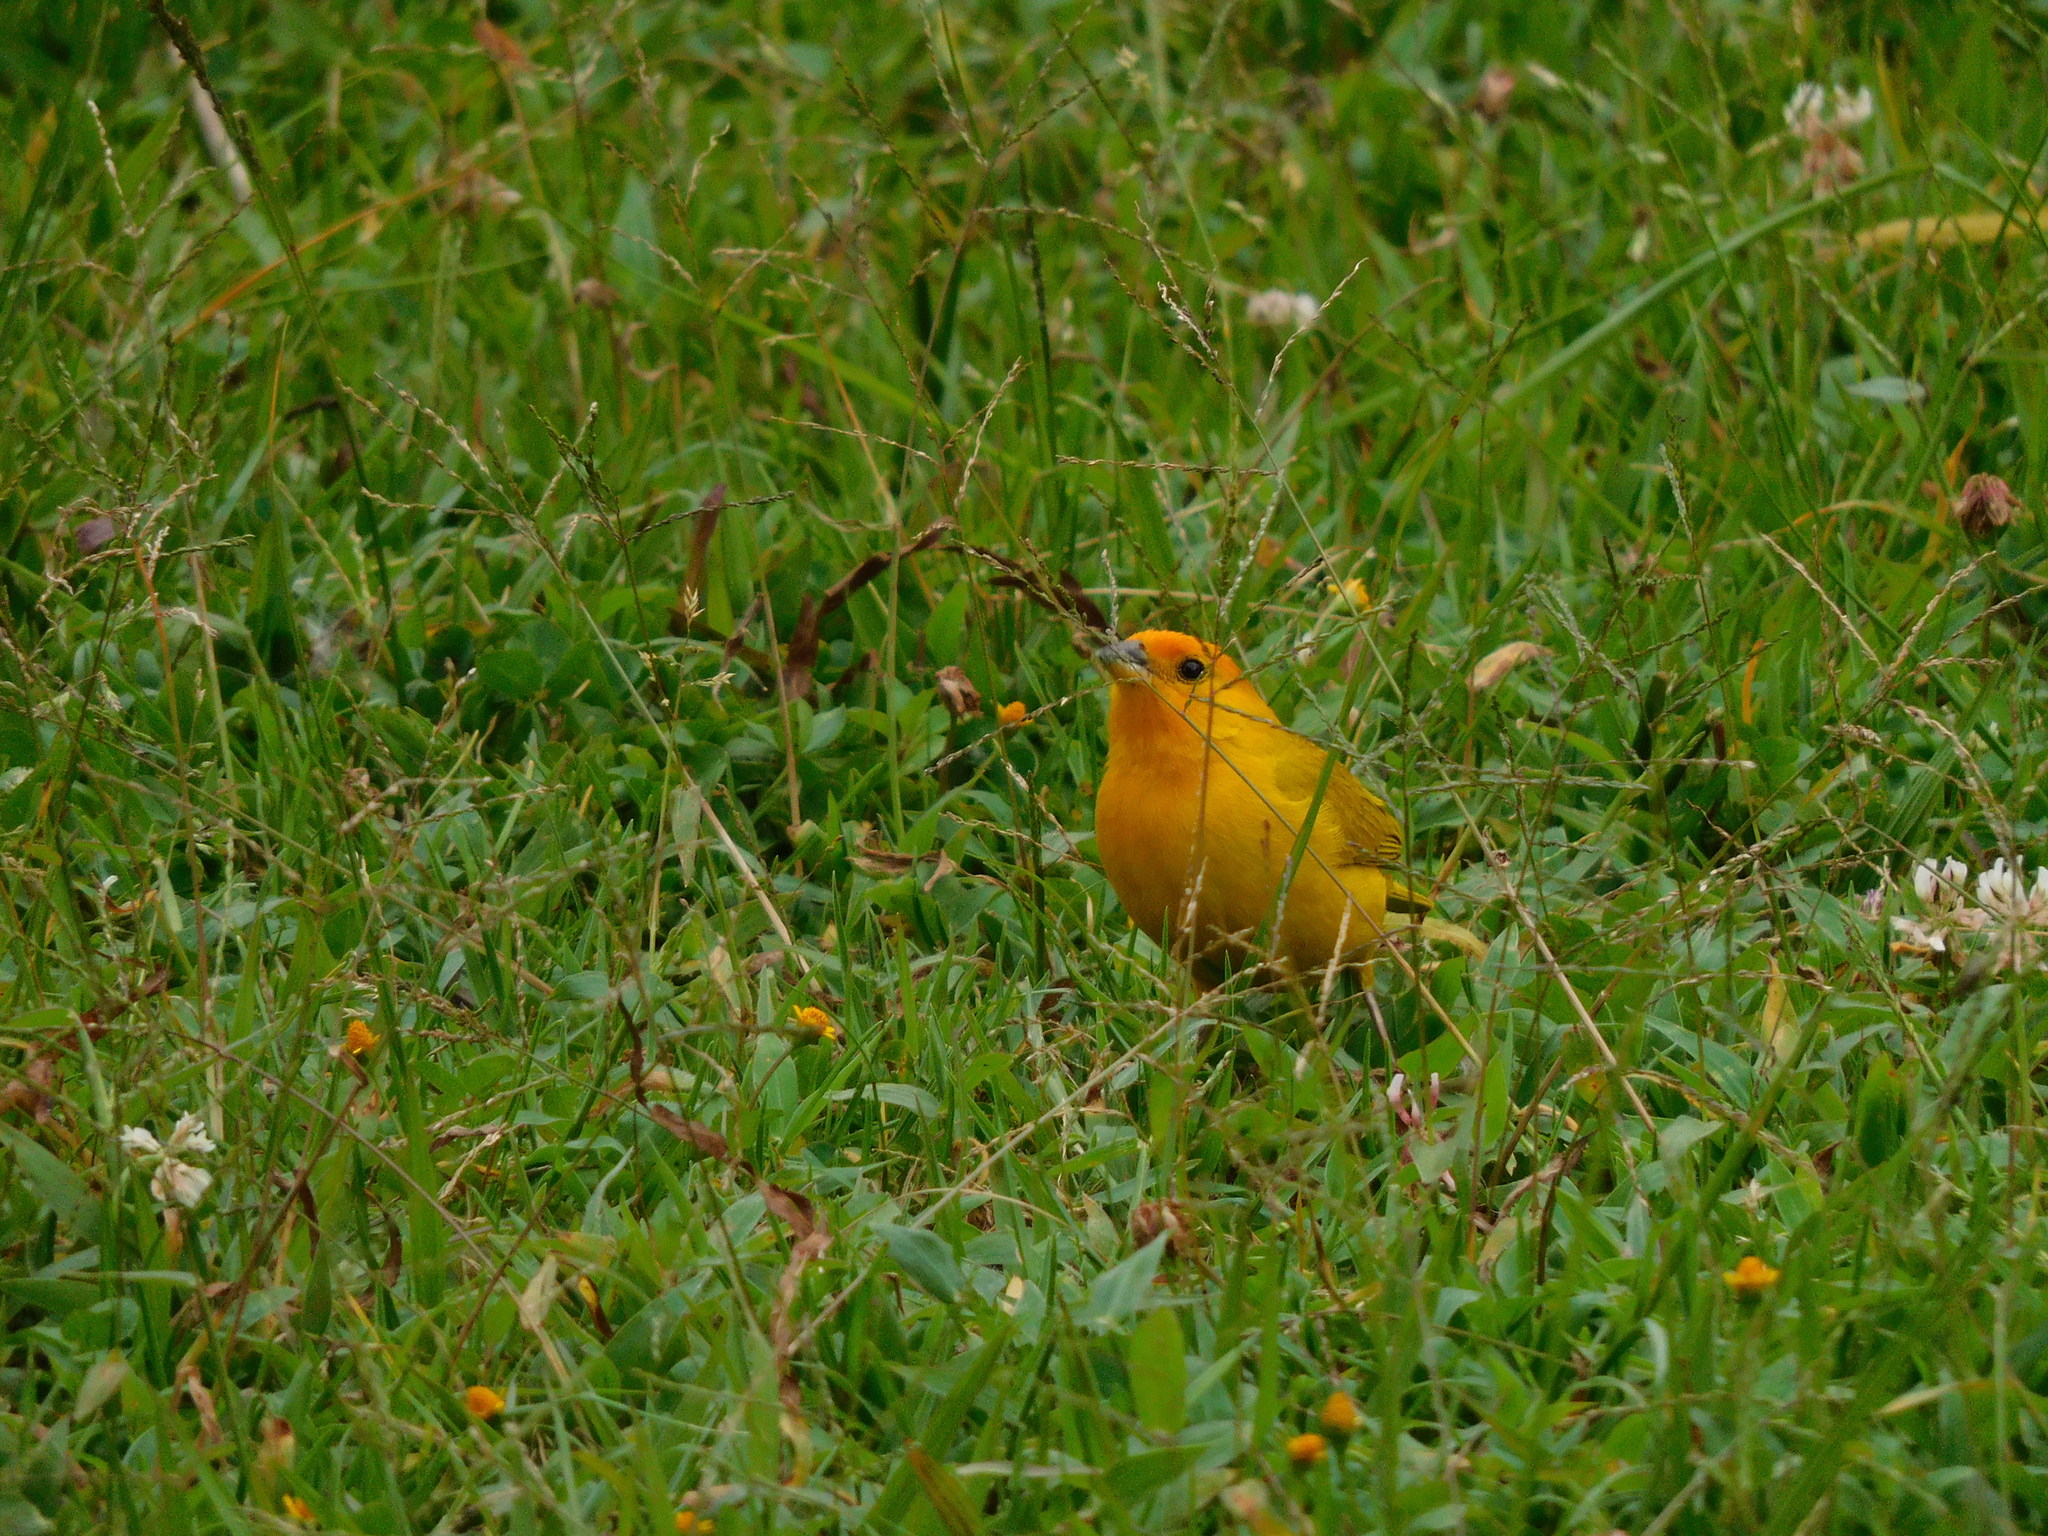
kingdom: Animalia
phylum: Chordata
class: Aves
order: Passeriformes
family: Thraupidae
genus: Sicalis
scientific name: Sicalis flaveola
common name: Saffron finch
